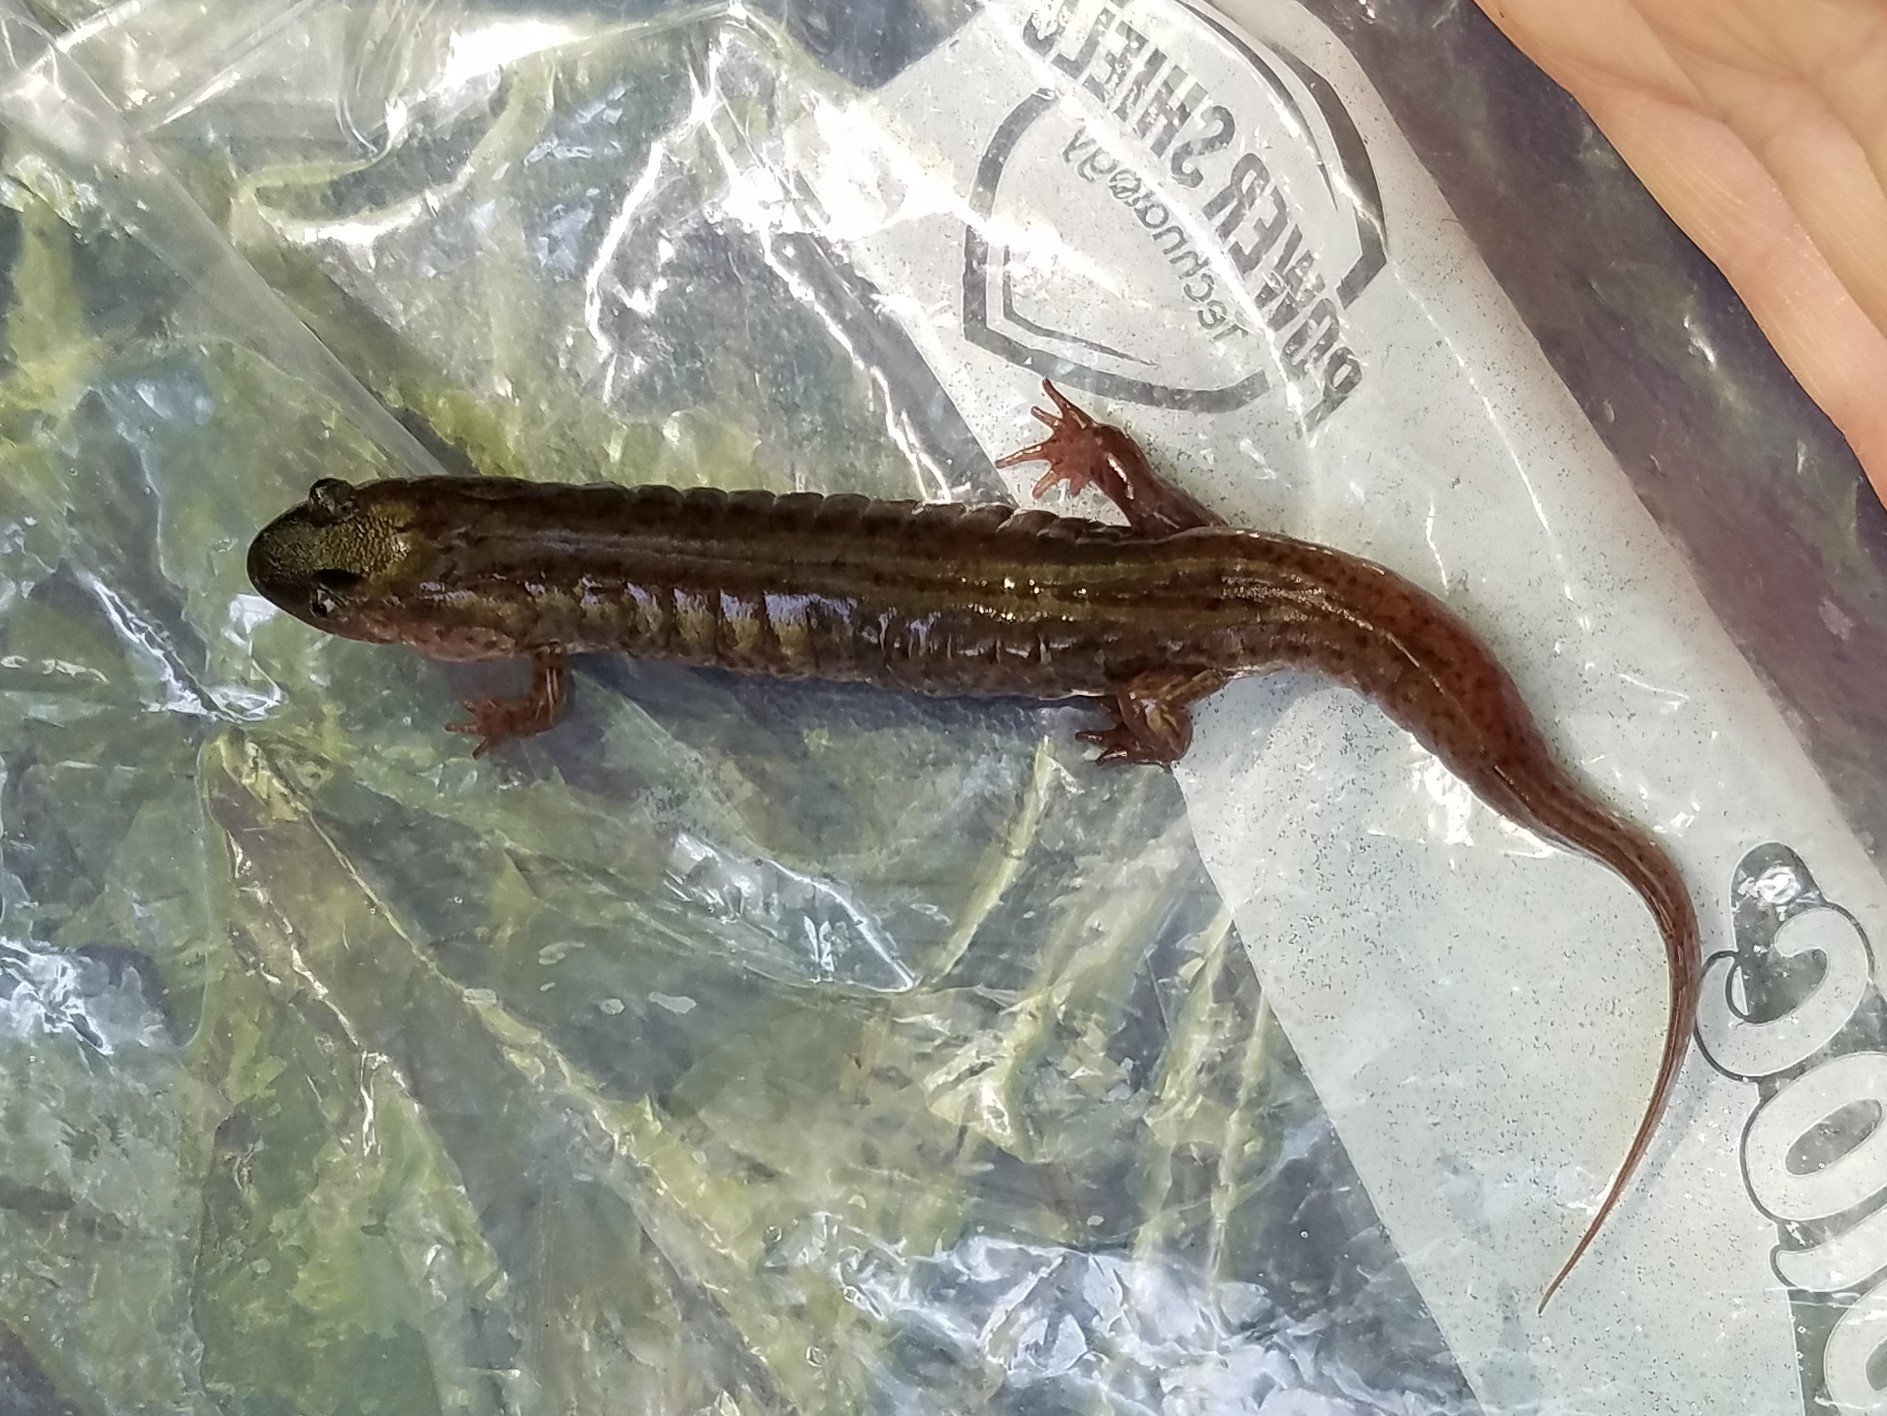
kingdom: Animalia
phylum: Chordata
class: Amphibia
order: Caudata
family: Plethodontidae
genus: Desmognathus
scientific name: Desmognathus monticola
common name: Seal salamander
